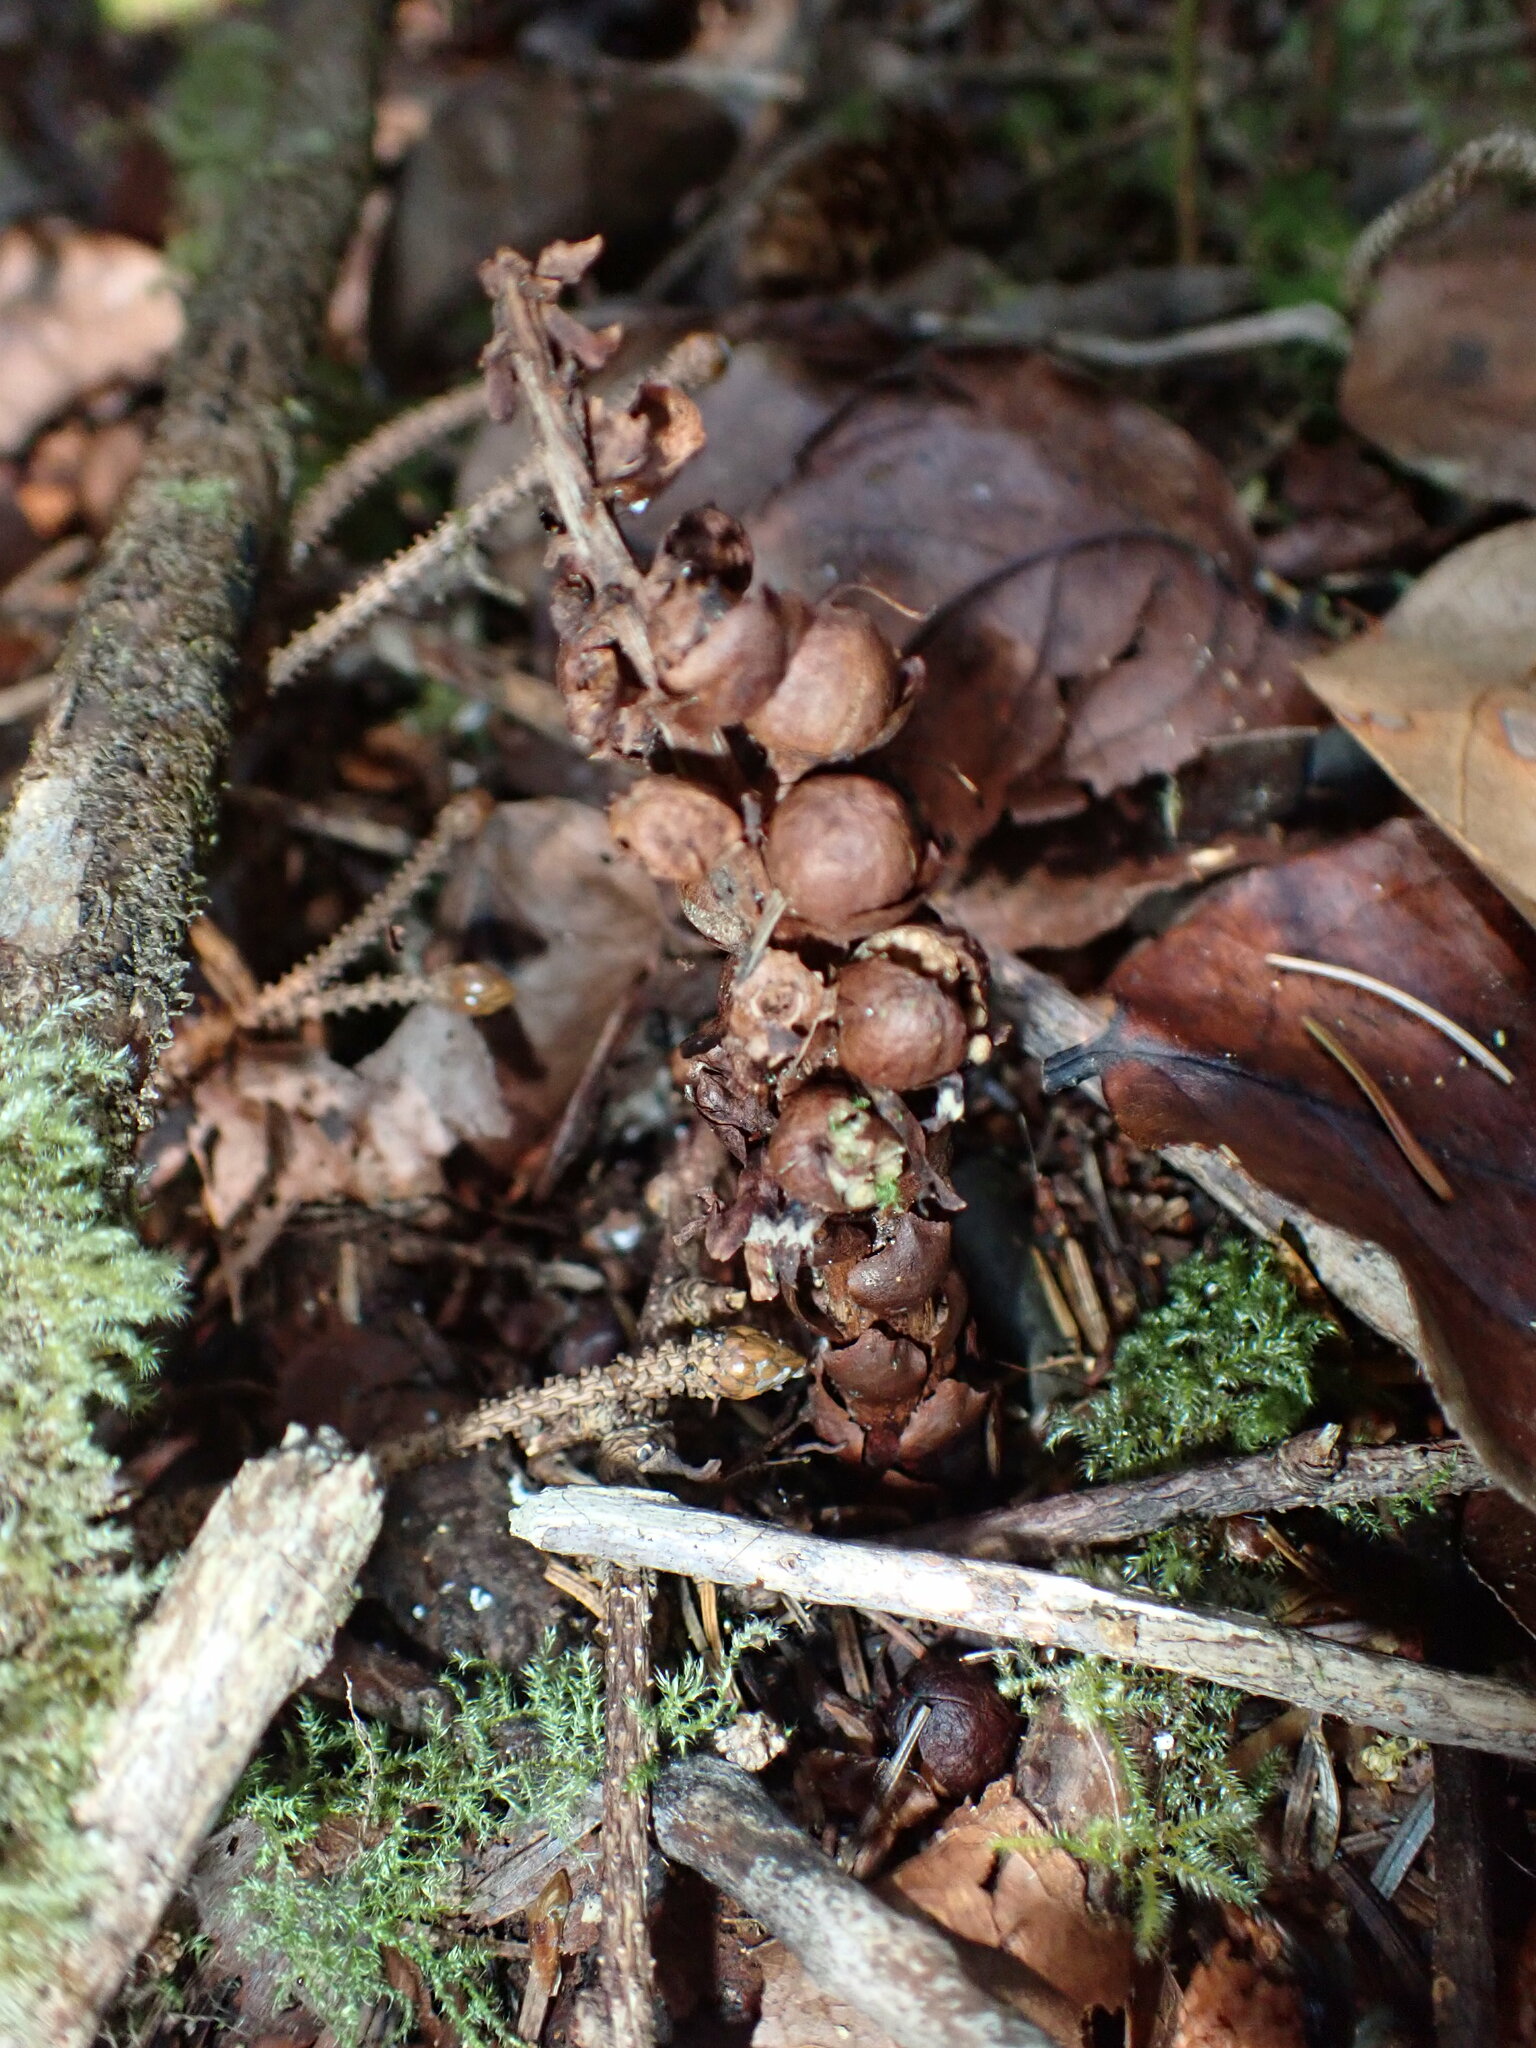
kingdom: Plantae
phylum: Tracheophyta
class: Magnoliopsida
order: Lamiales
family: Orobanchaceae
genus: Kopsiopsis
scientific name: Kopsiopsis hookeri
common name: Hooker's groundcone
